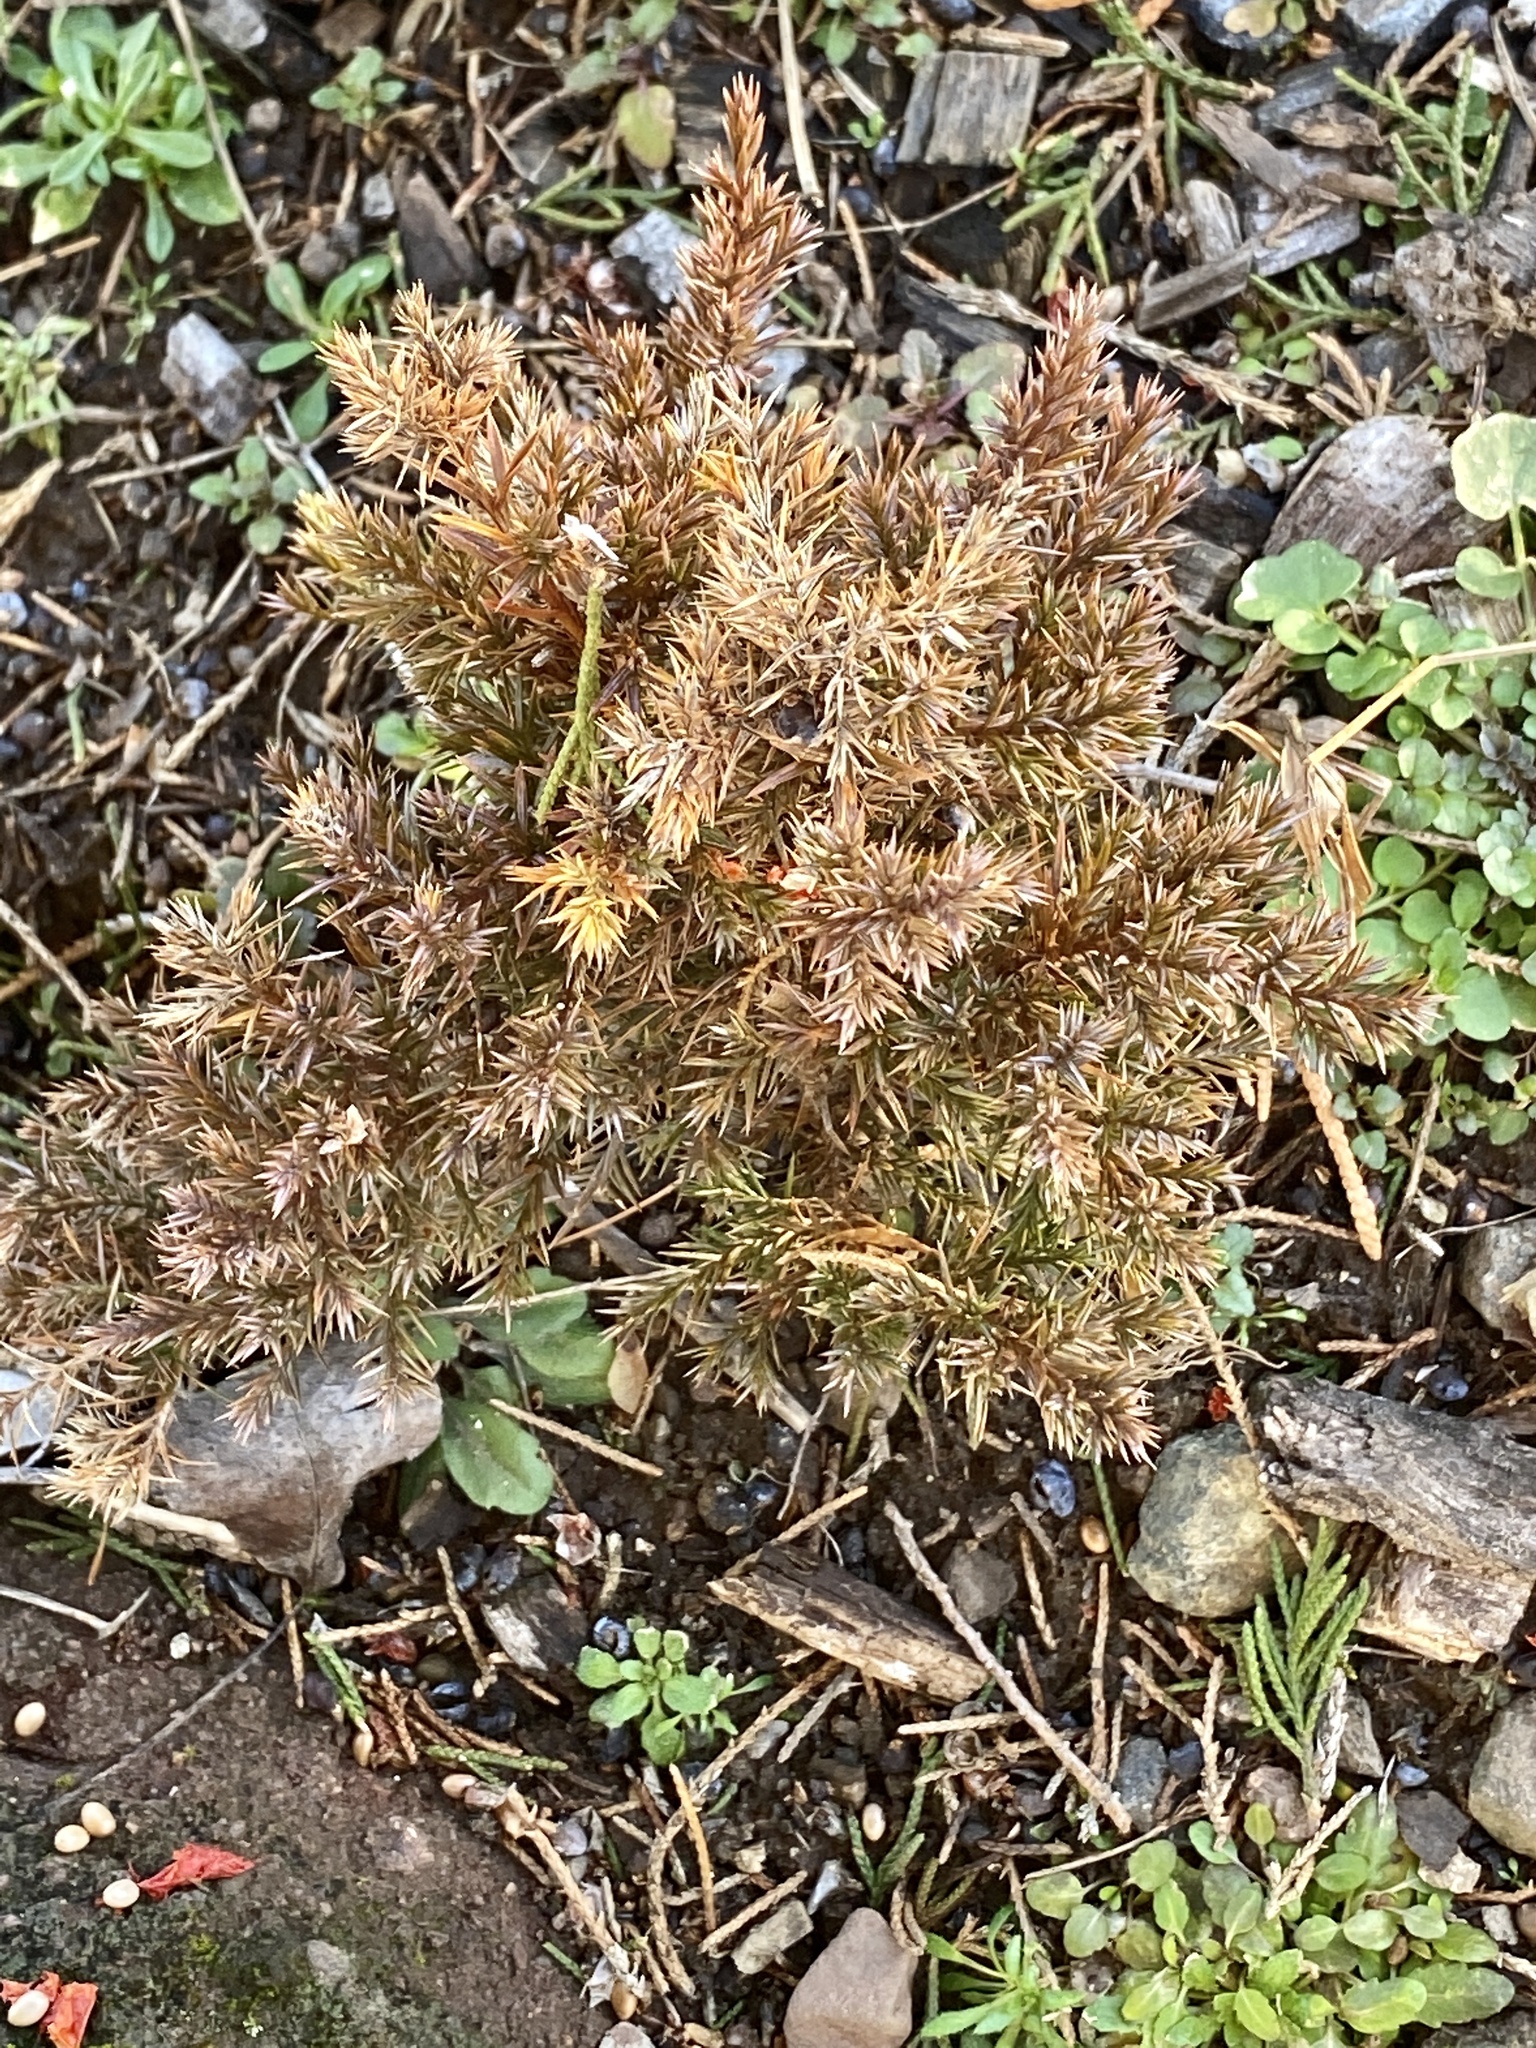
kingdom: Plantae
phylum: Tracheophyta
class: Pinopsida
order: Pinales
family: Cupressaceae
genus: Juniperus
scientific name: Juniperus virginiana
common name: Red juniper
